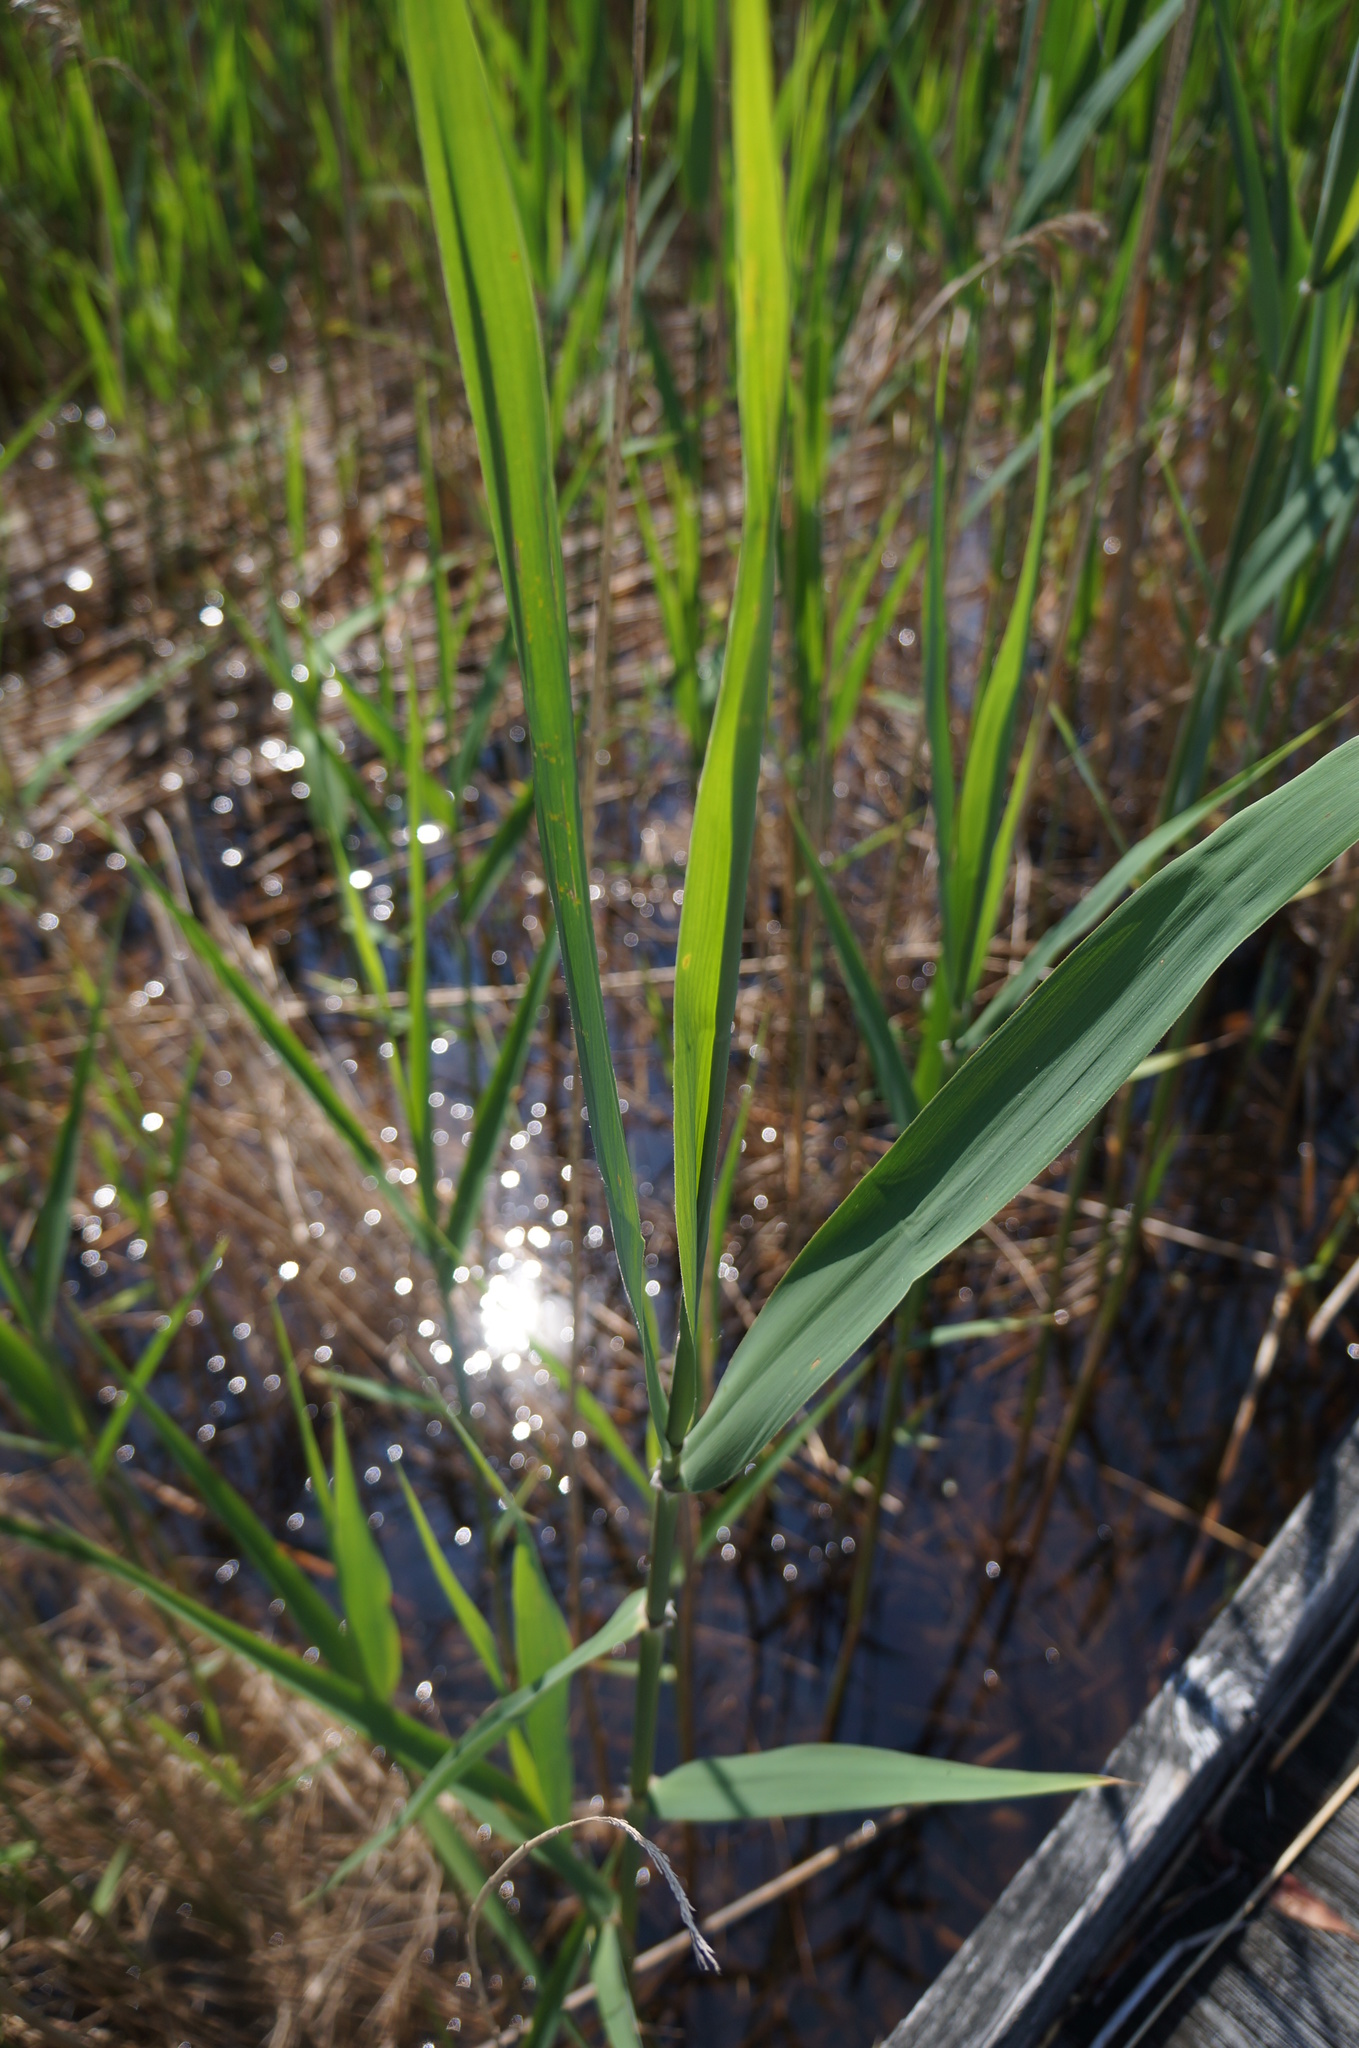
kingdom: Plantae
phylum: Tracheophyta
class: Liliopsida
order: Poales
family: Poaceae
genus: Phalaris
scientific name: Phalaris arundinacea
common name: Reed canary-grass
